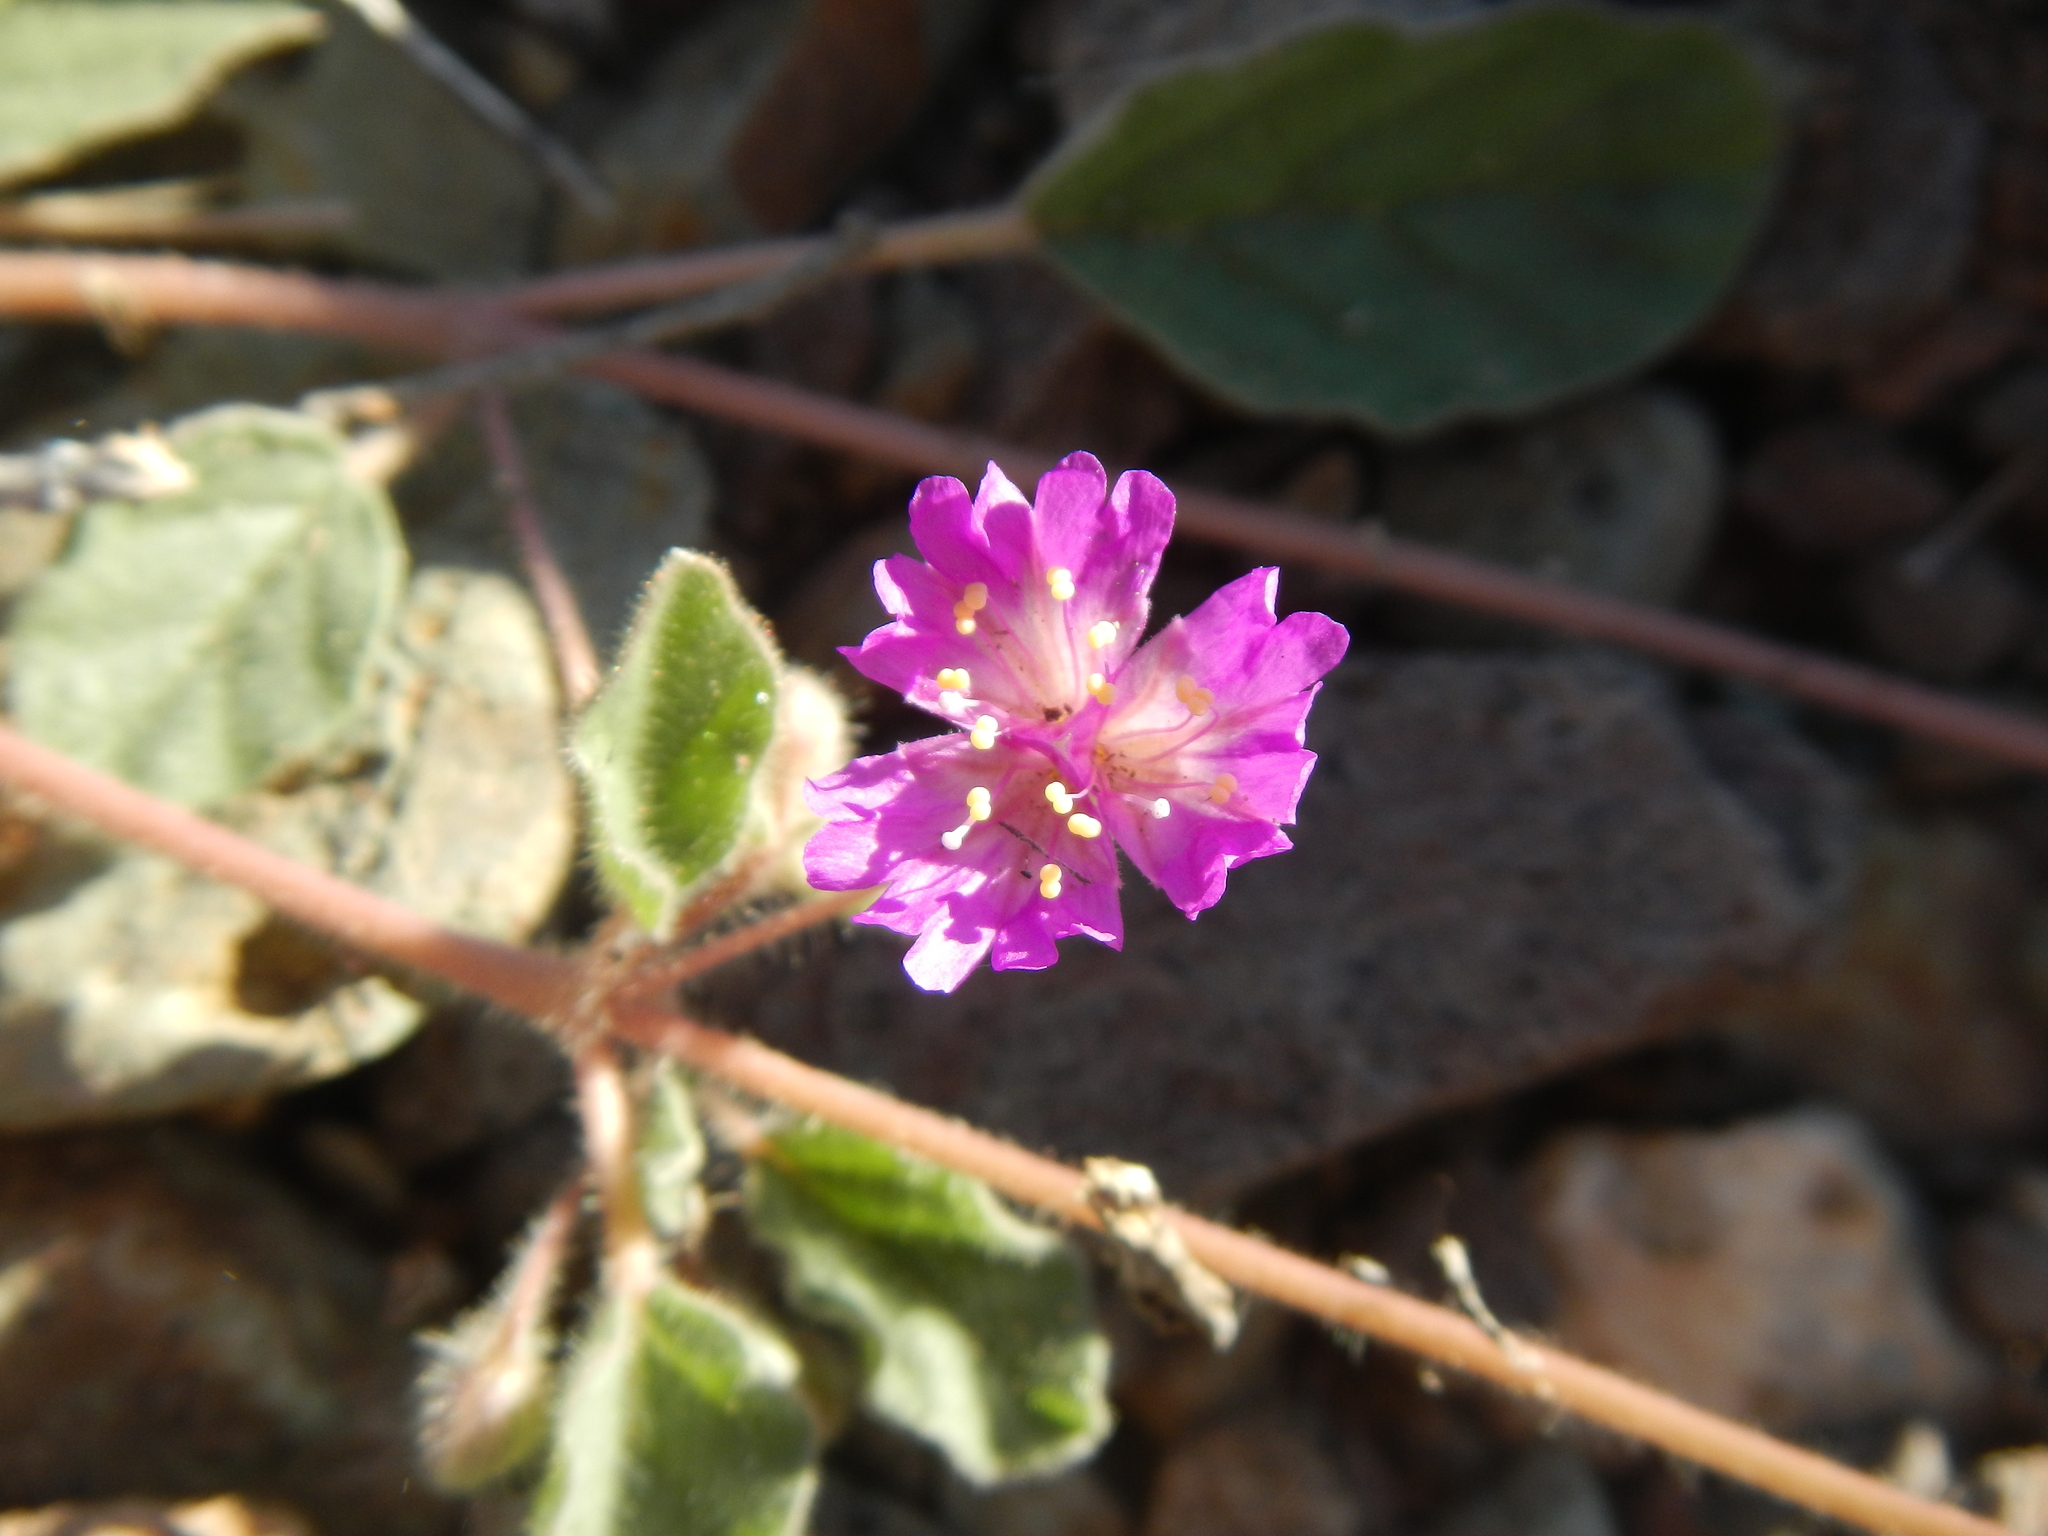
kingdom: Plantae
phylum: Tracheophyta
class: Magnoliopsida
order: Caryophyllales
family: Nyctaginaceae
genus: Allionia
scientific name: Allionia incarnata
